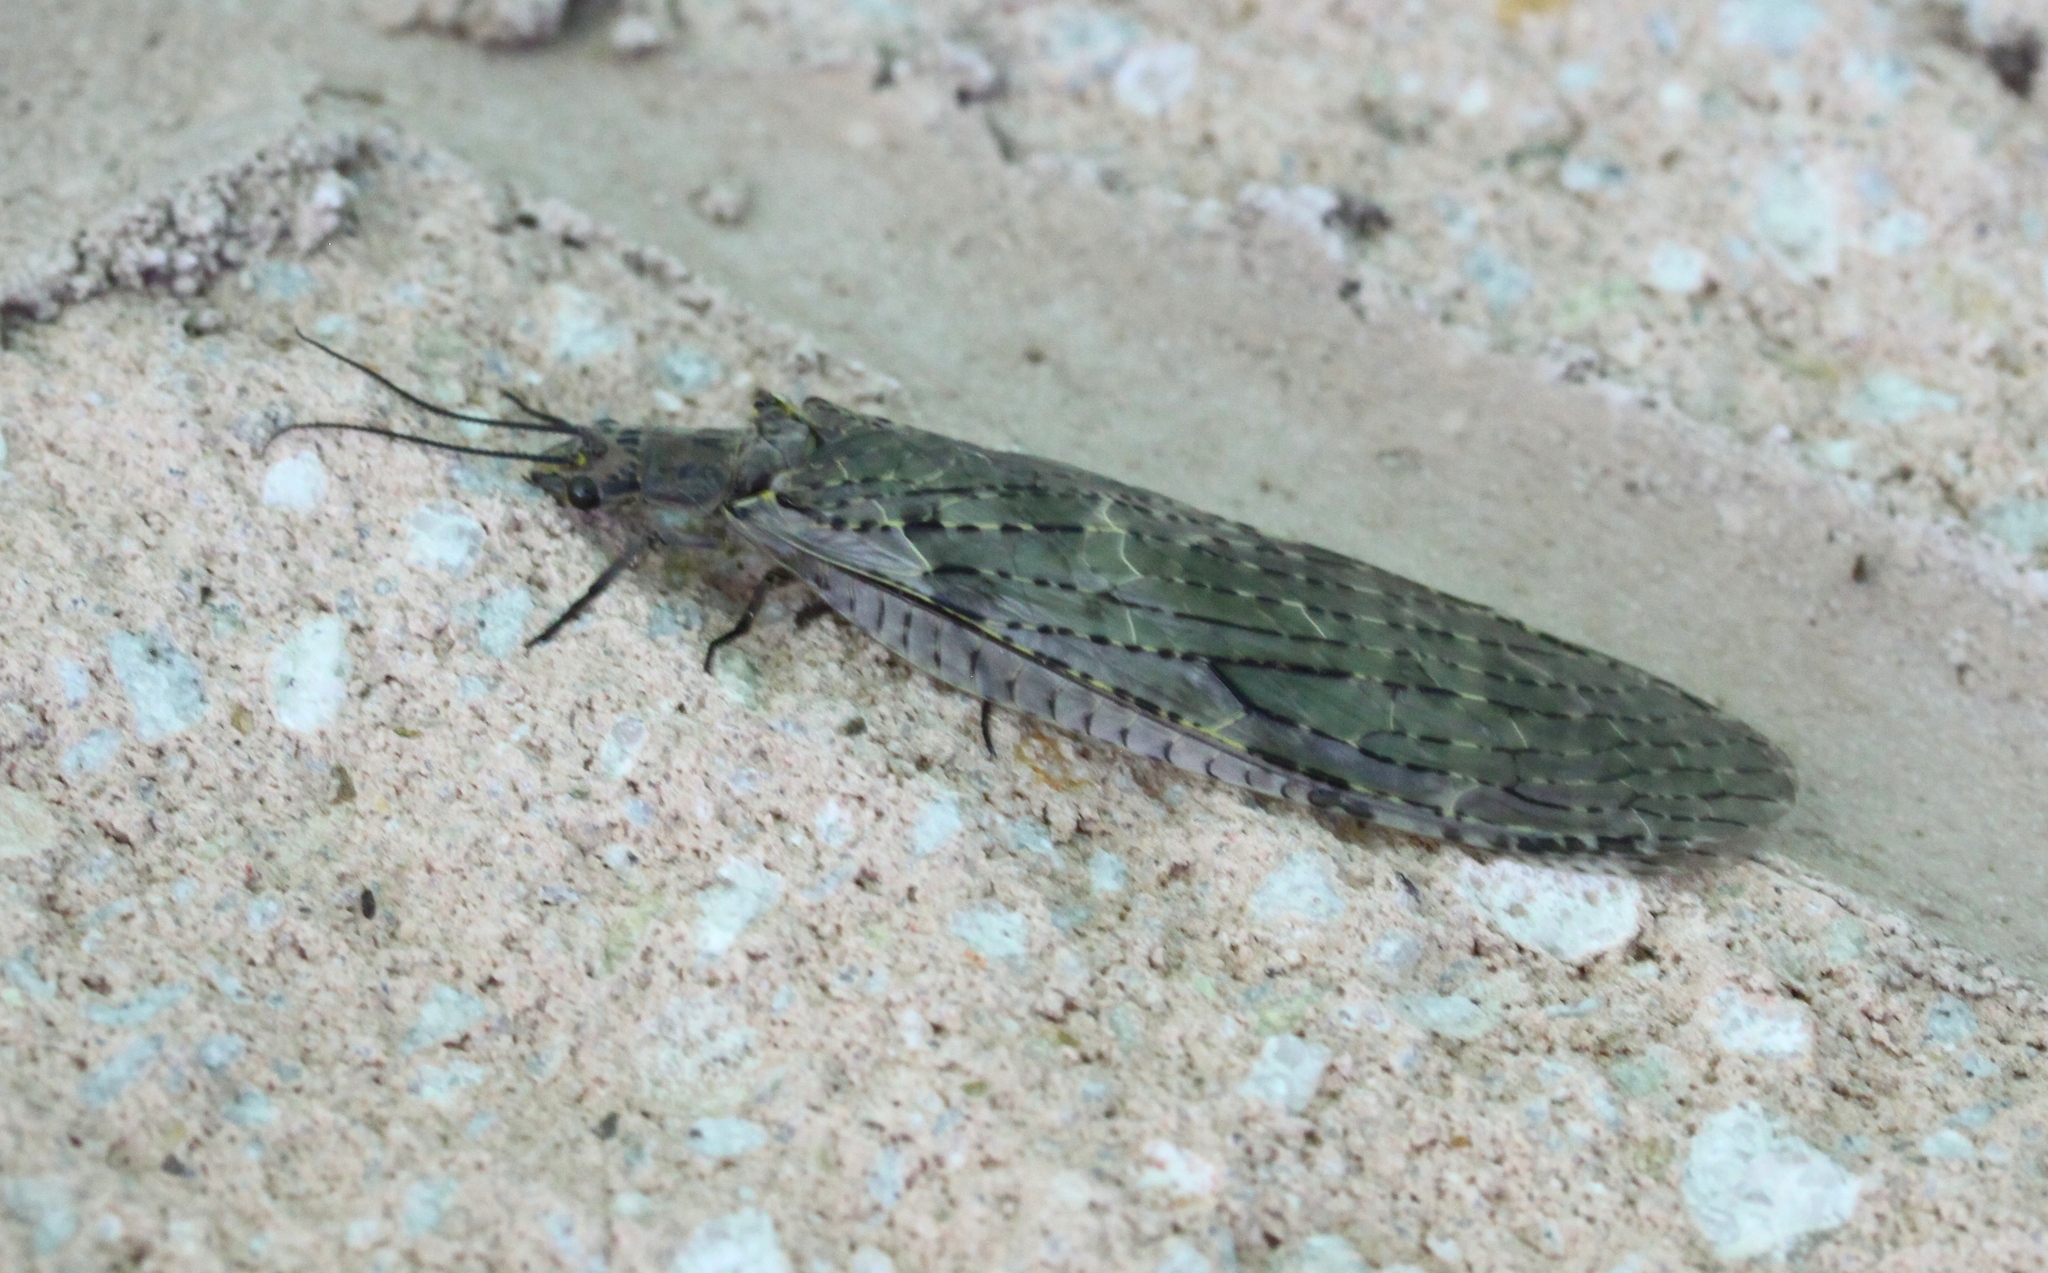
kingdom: Animalia
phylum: Arthropoda
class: Insecta
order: Megaloptera
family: Corydalidae
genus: Chauliodes
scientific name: Chauliodes rastricornis
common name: Spring fishfly
